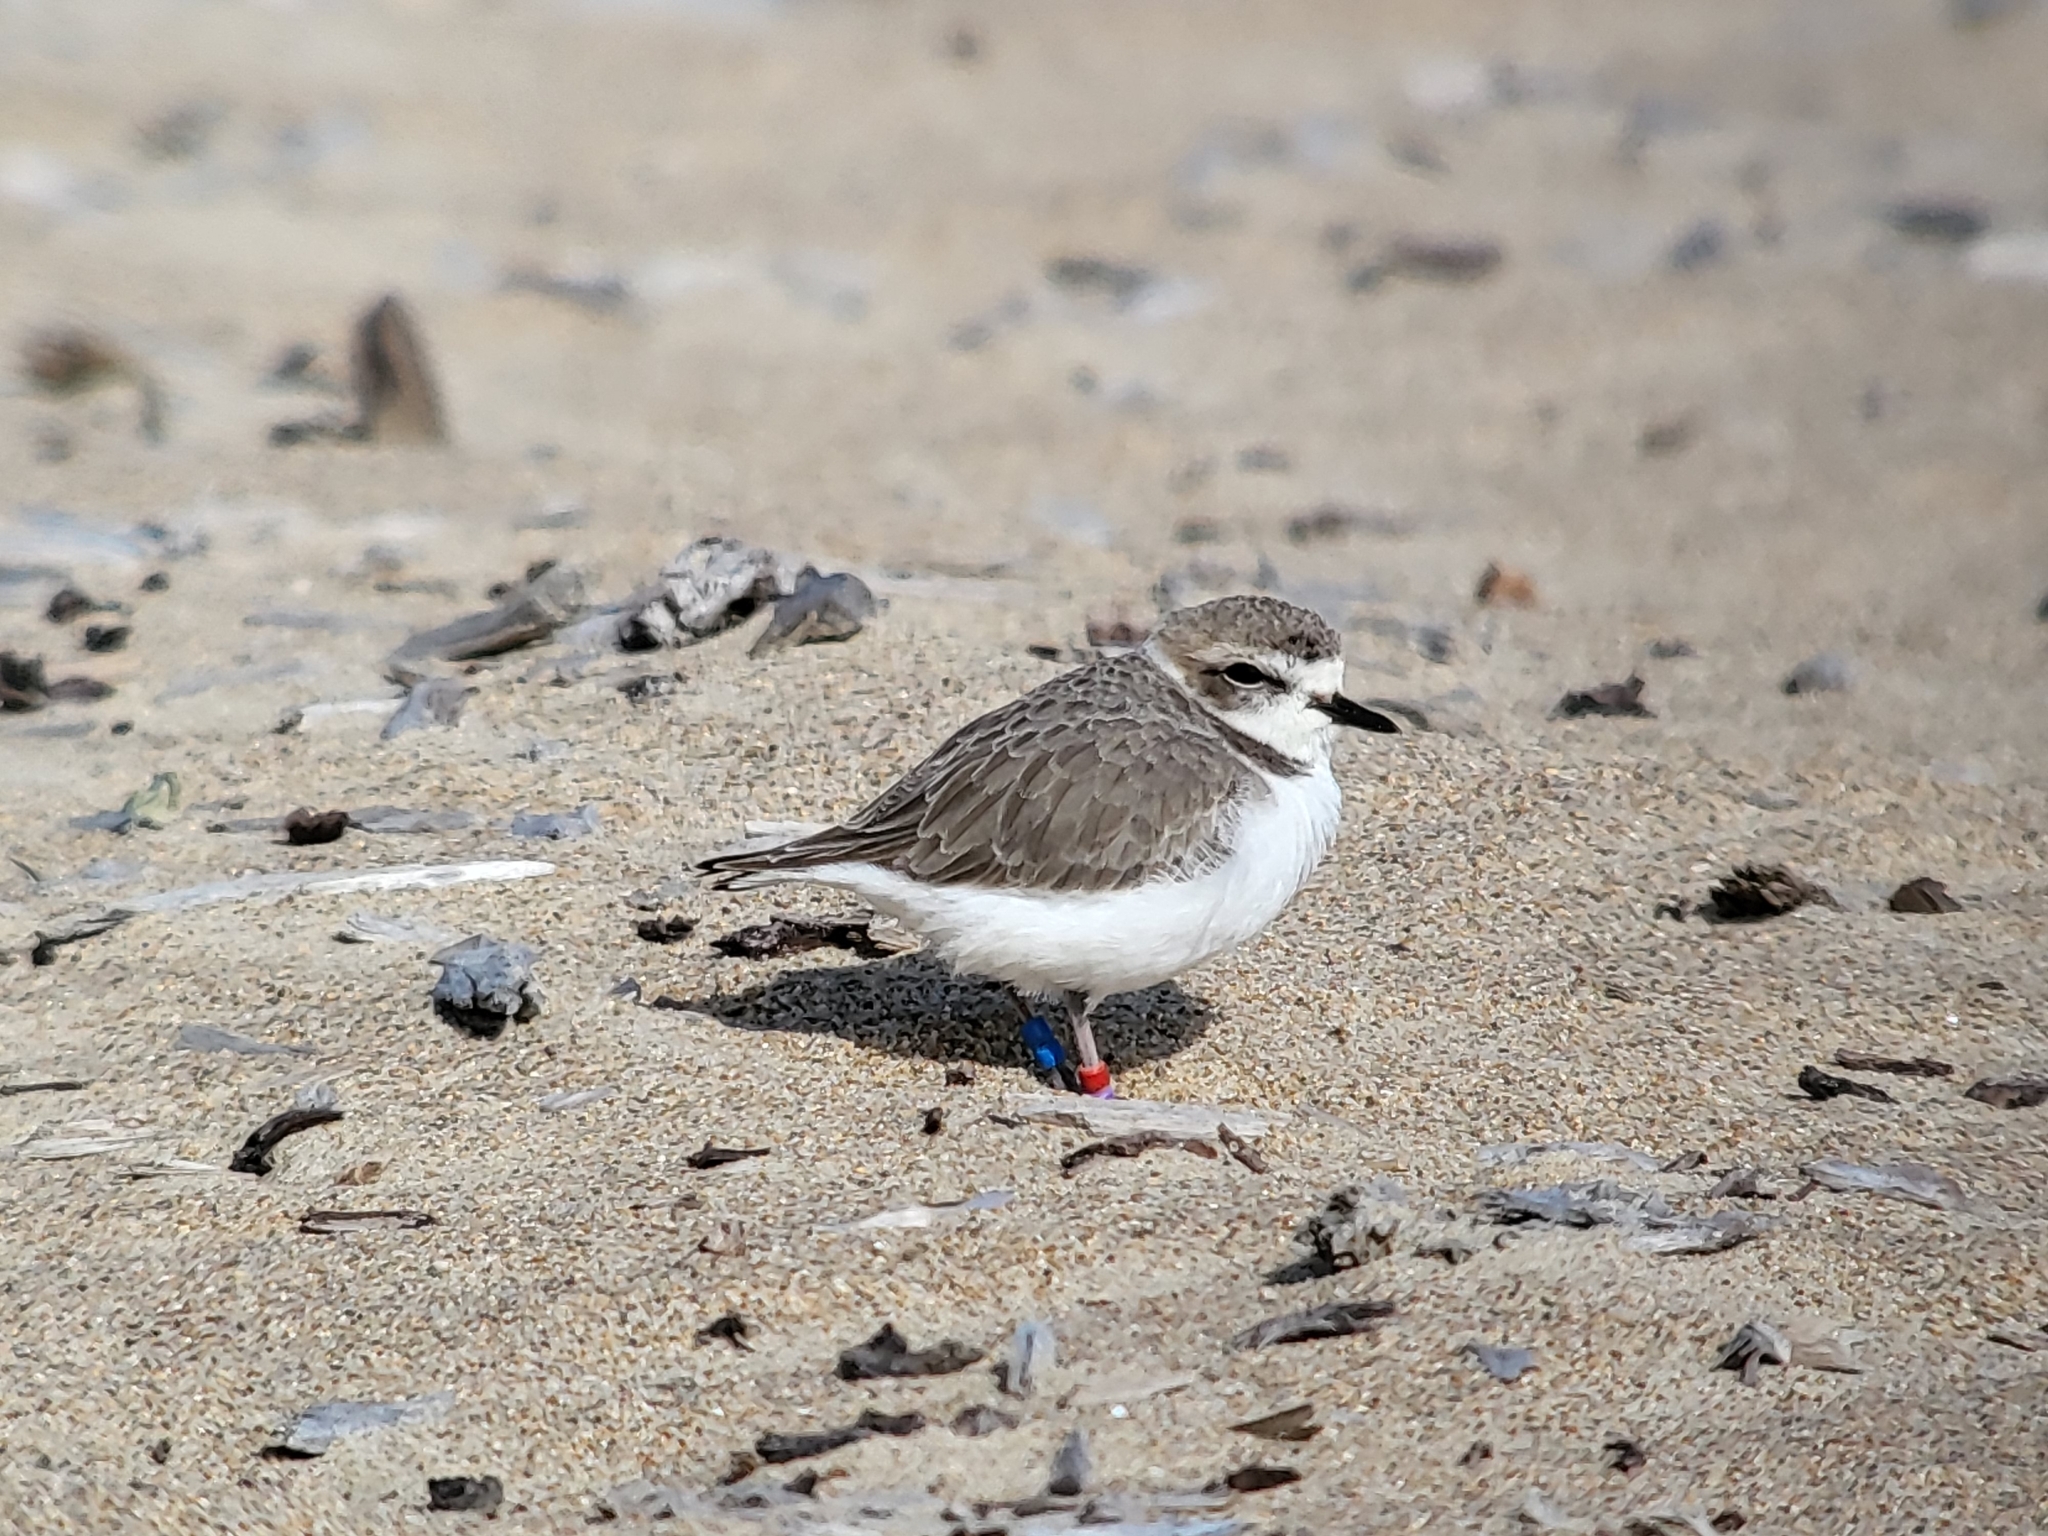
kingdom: Animalia
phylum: Chordata
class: Aves
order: Charadriiformes
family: Charadriidae
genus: Anarhynchus
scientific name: Anarhynchus
